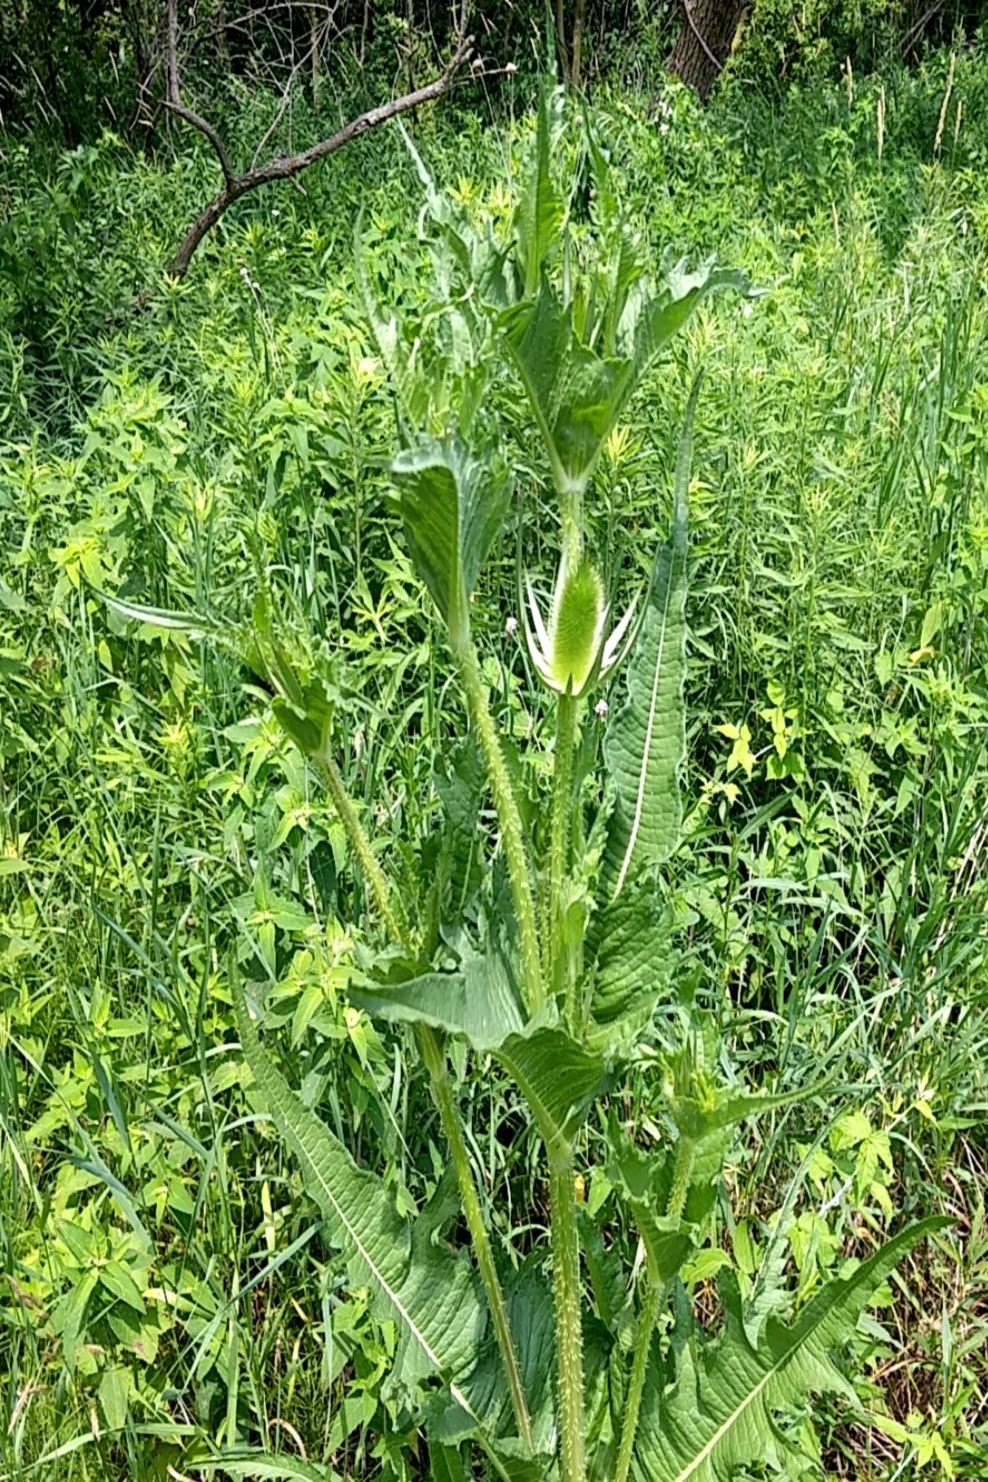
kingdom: Plantae
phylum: Tracheophyta
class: Magnoliopsida
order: Dipsacales
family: Caprifoliaceae
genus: Dipsacus
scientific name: Dipsacus laciniatus
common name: Cut-leaved teasel
